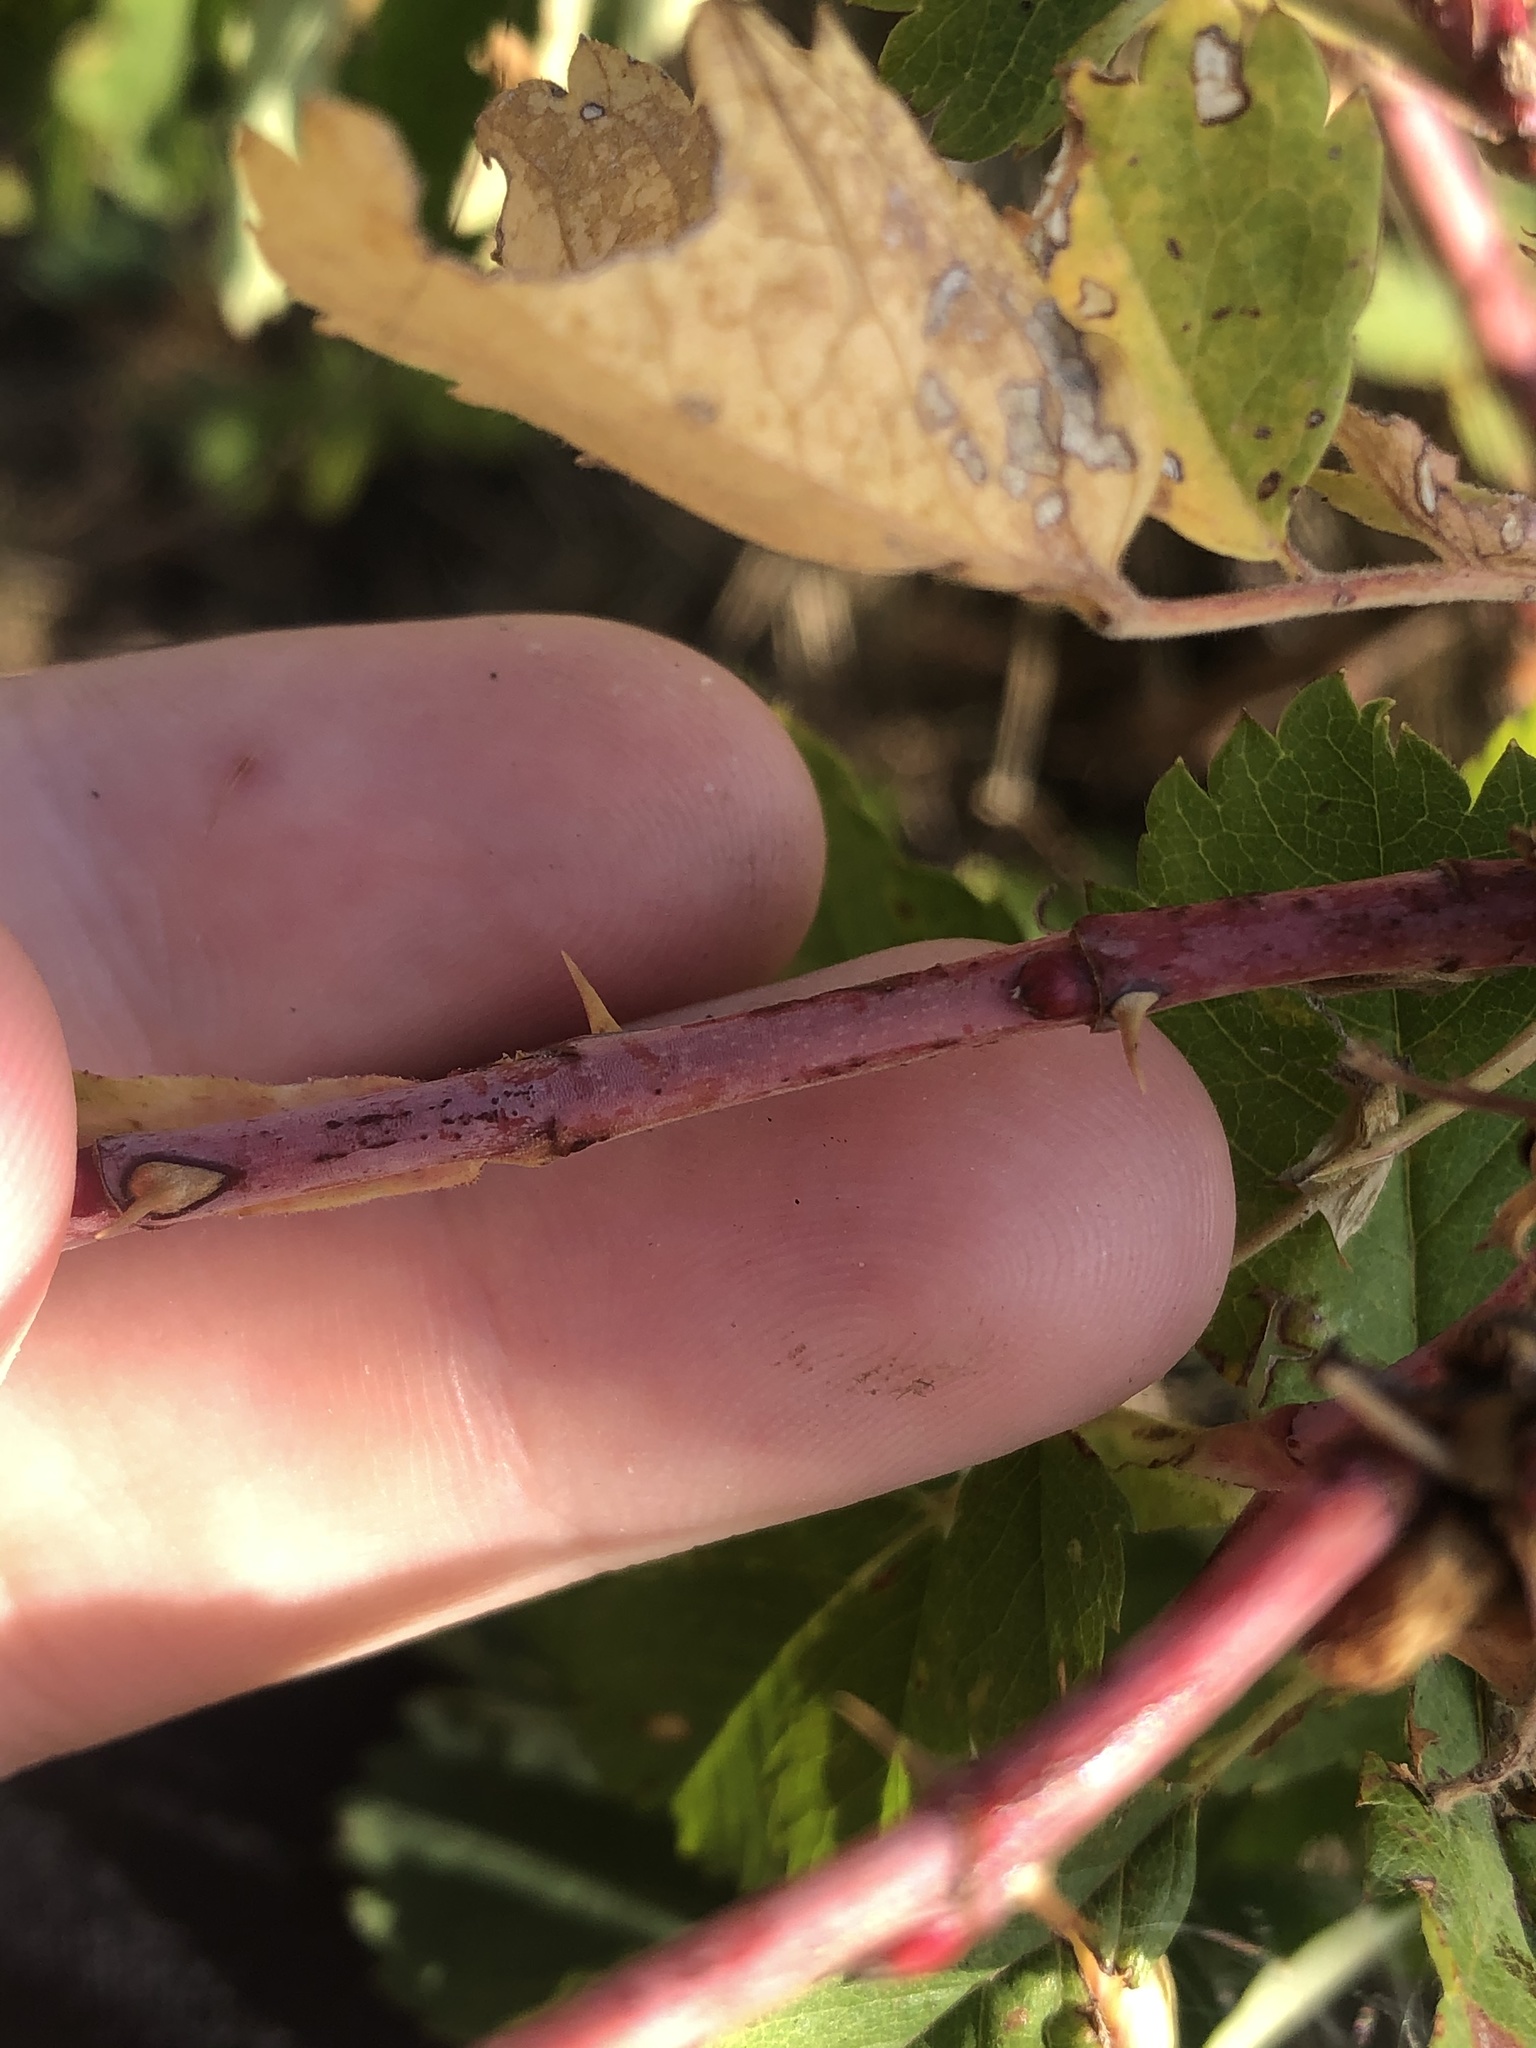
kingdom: Plantae
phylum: Tracheophyta
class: Magnoliopsida
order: Rosales
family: Rosaceae
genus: Rosa
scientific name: Rosa woodsii
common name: Woods's rose
